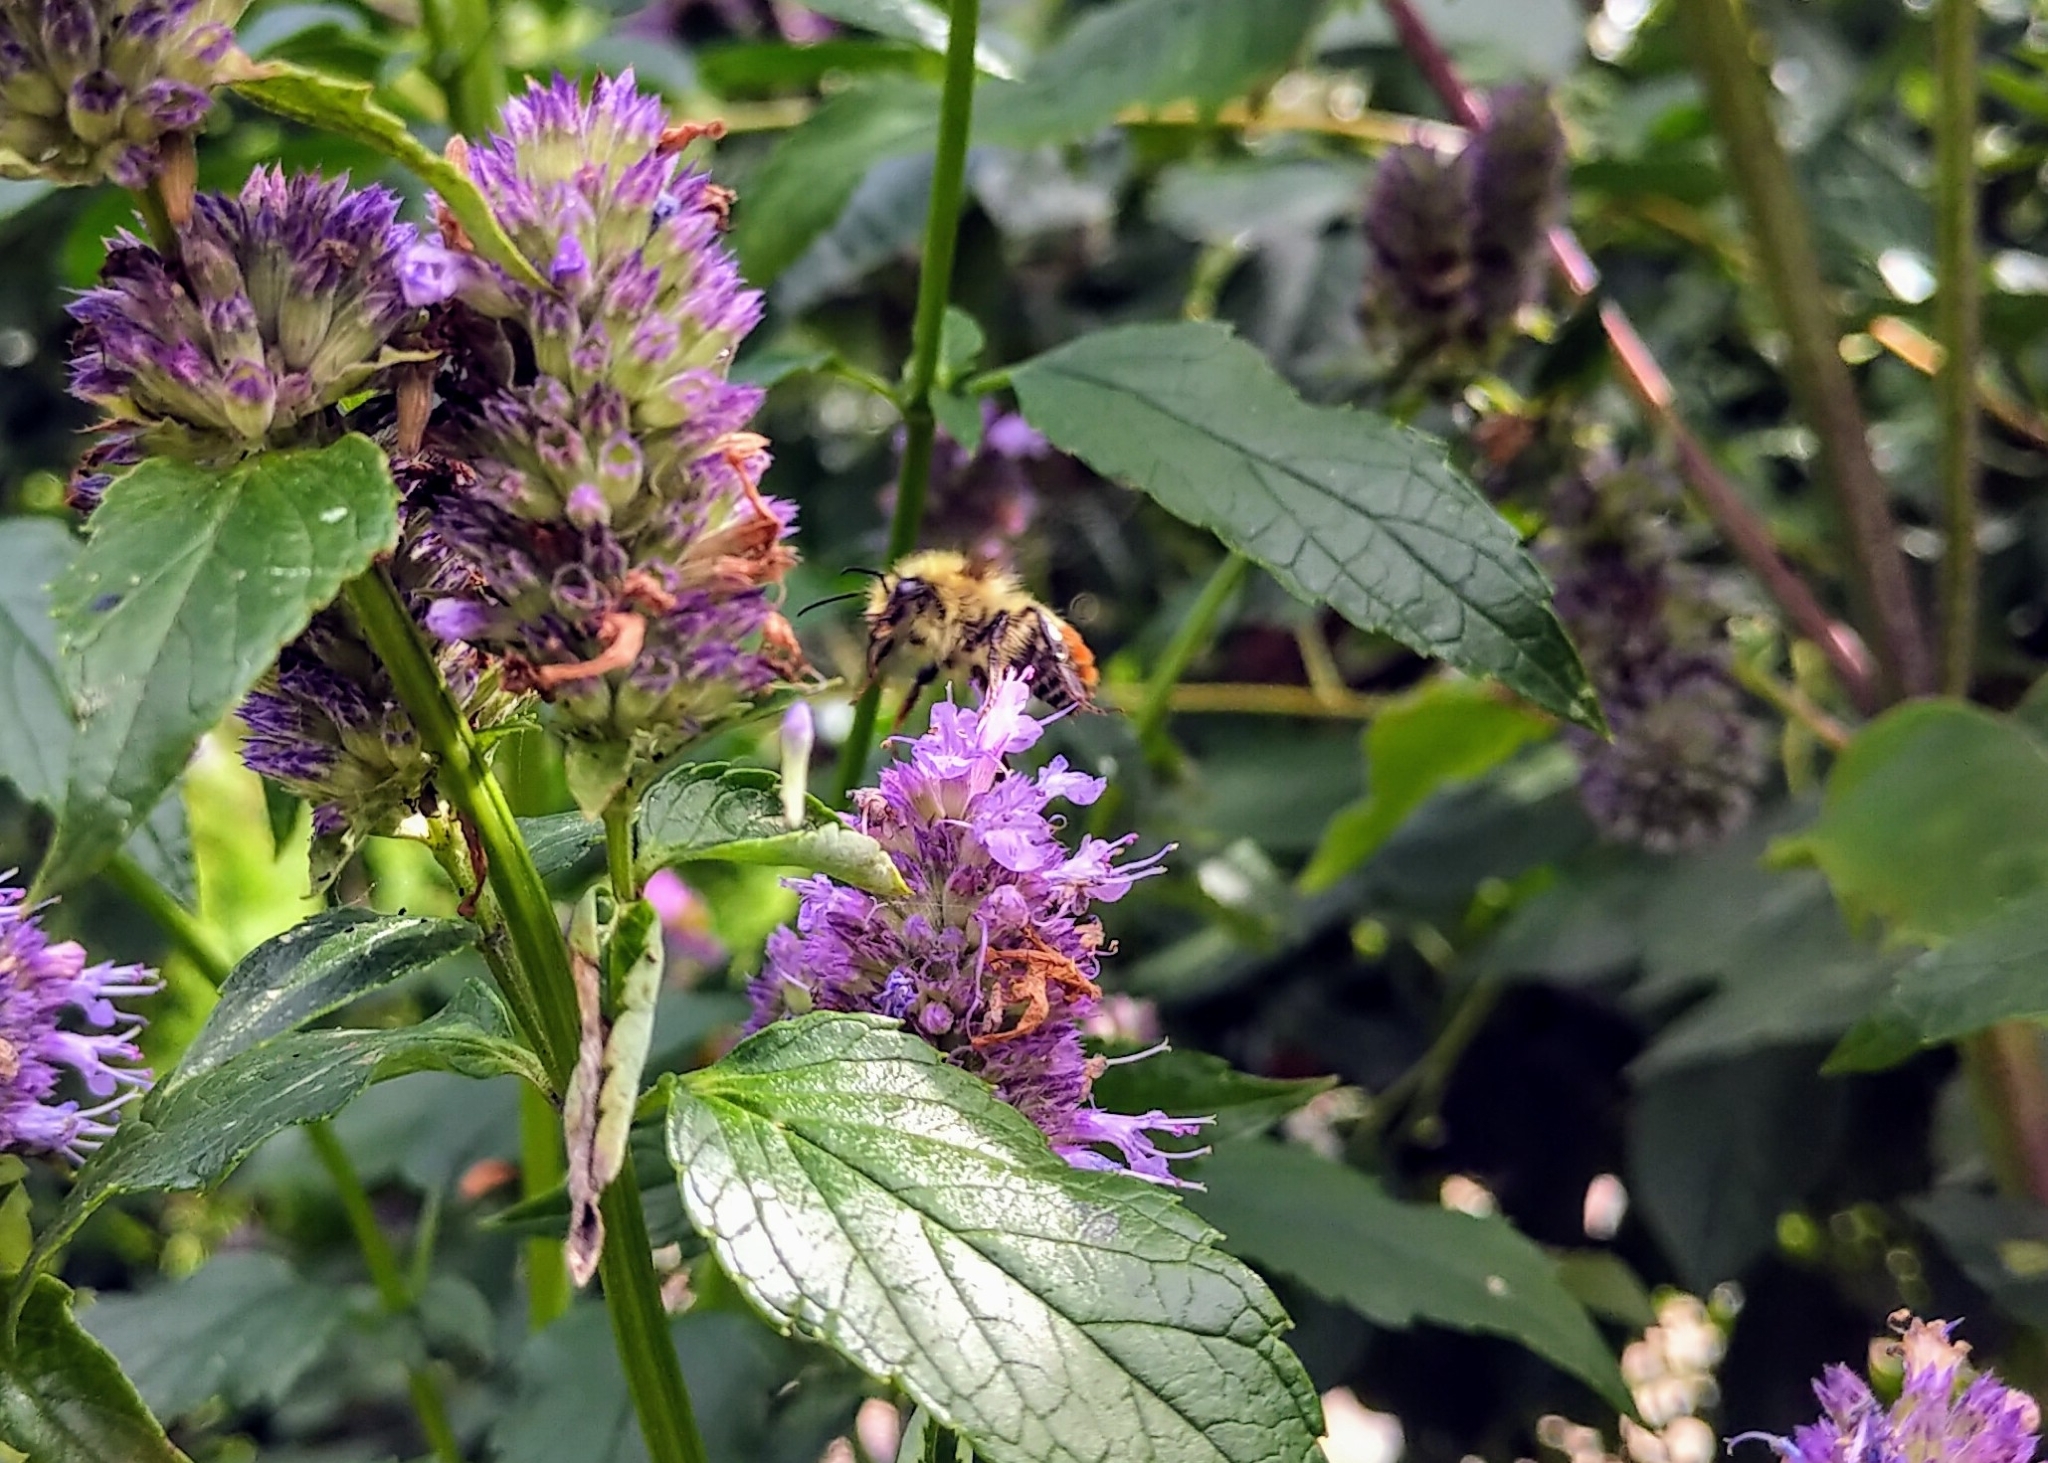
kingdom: Animalia
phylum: Arthropoda
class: Insecta
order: Hymenoptera
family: Apidae
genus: Bombus
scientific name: Bombus centralis
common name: Central bumble bee
